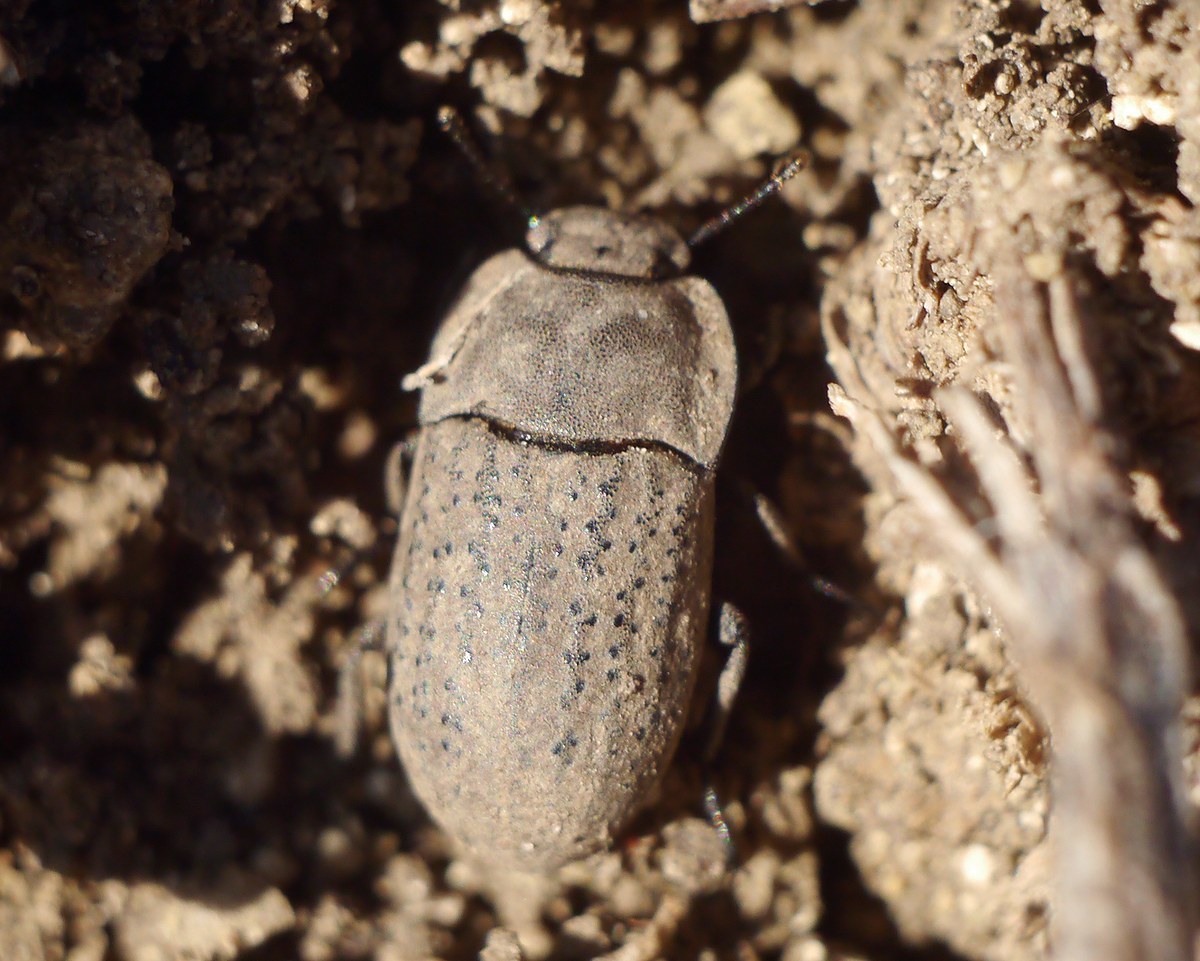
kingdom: Animalia
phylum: Arthropoda
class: Insecta
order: Coleoptera
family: Tenebrionidae
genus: Opatrum
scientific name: Opatrum sabulosum
